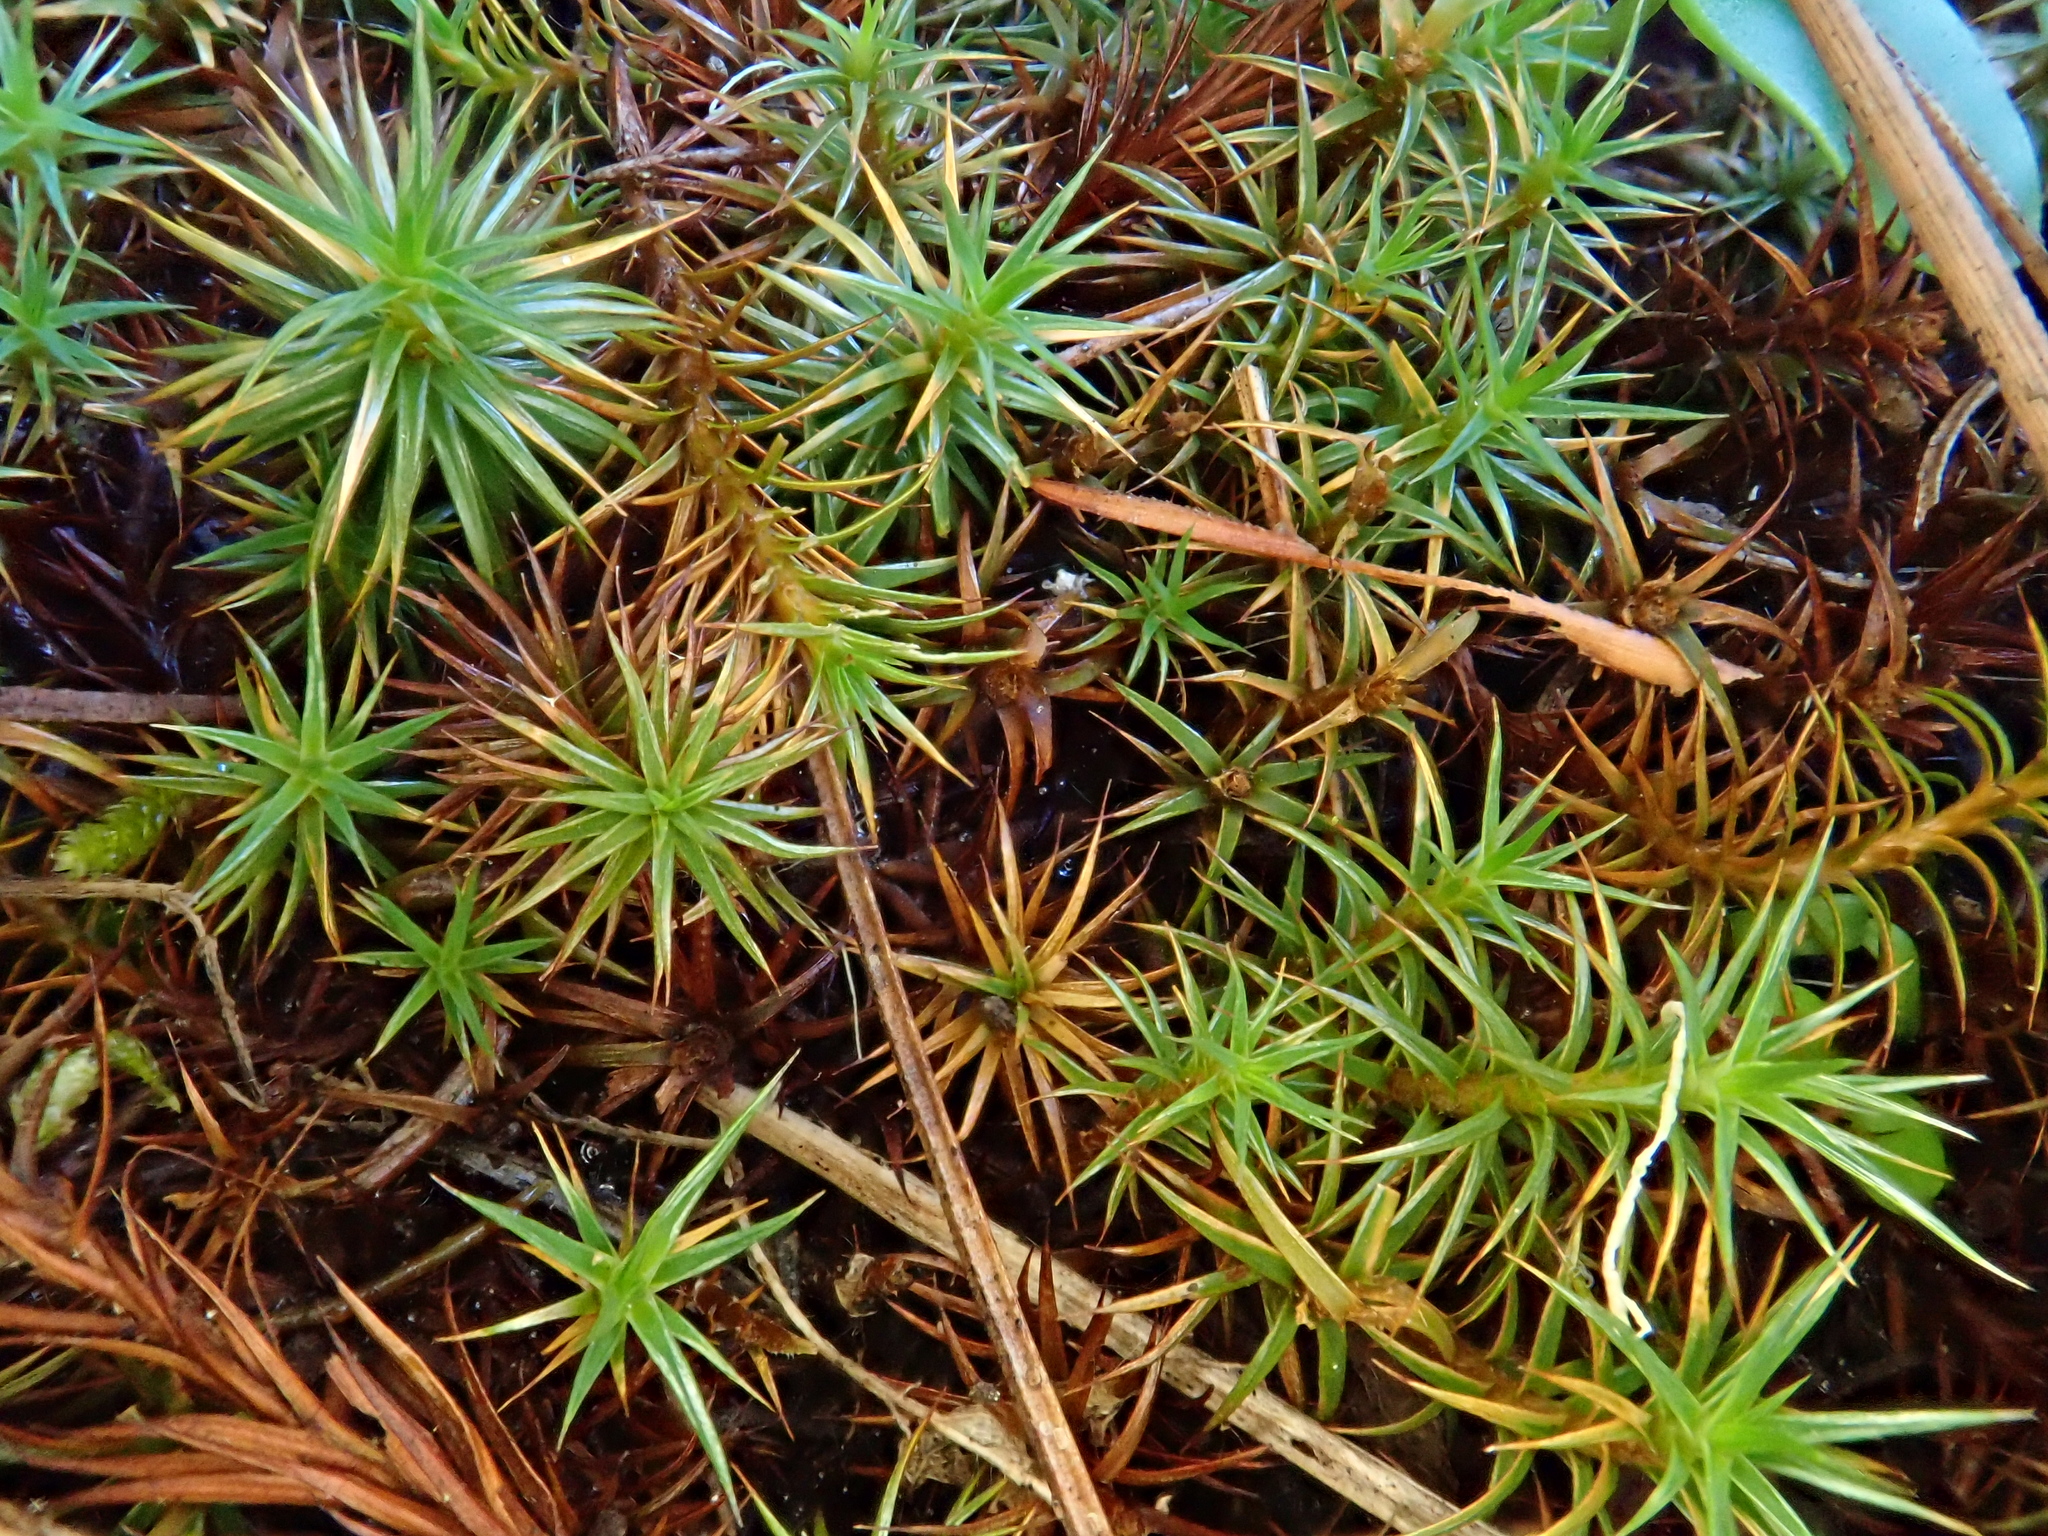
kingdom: Plantae
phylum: Bryophyta
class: Polytrichopsida
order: Polytrichales
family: Polytrichaceae
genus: Polytrichum
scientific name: Polytrichum juniperinum
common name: Juniper haircap moss
